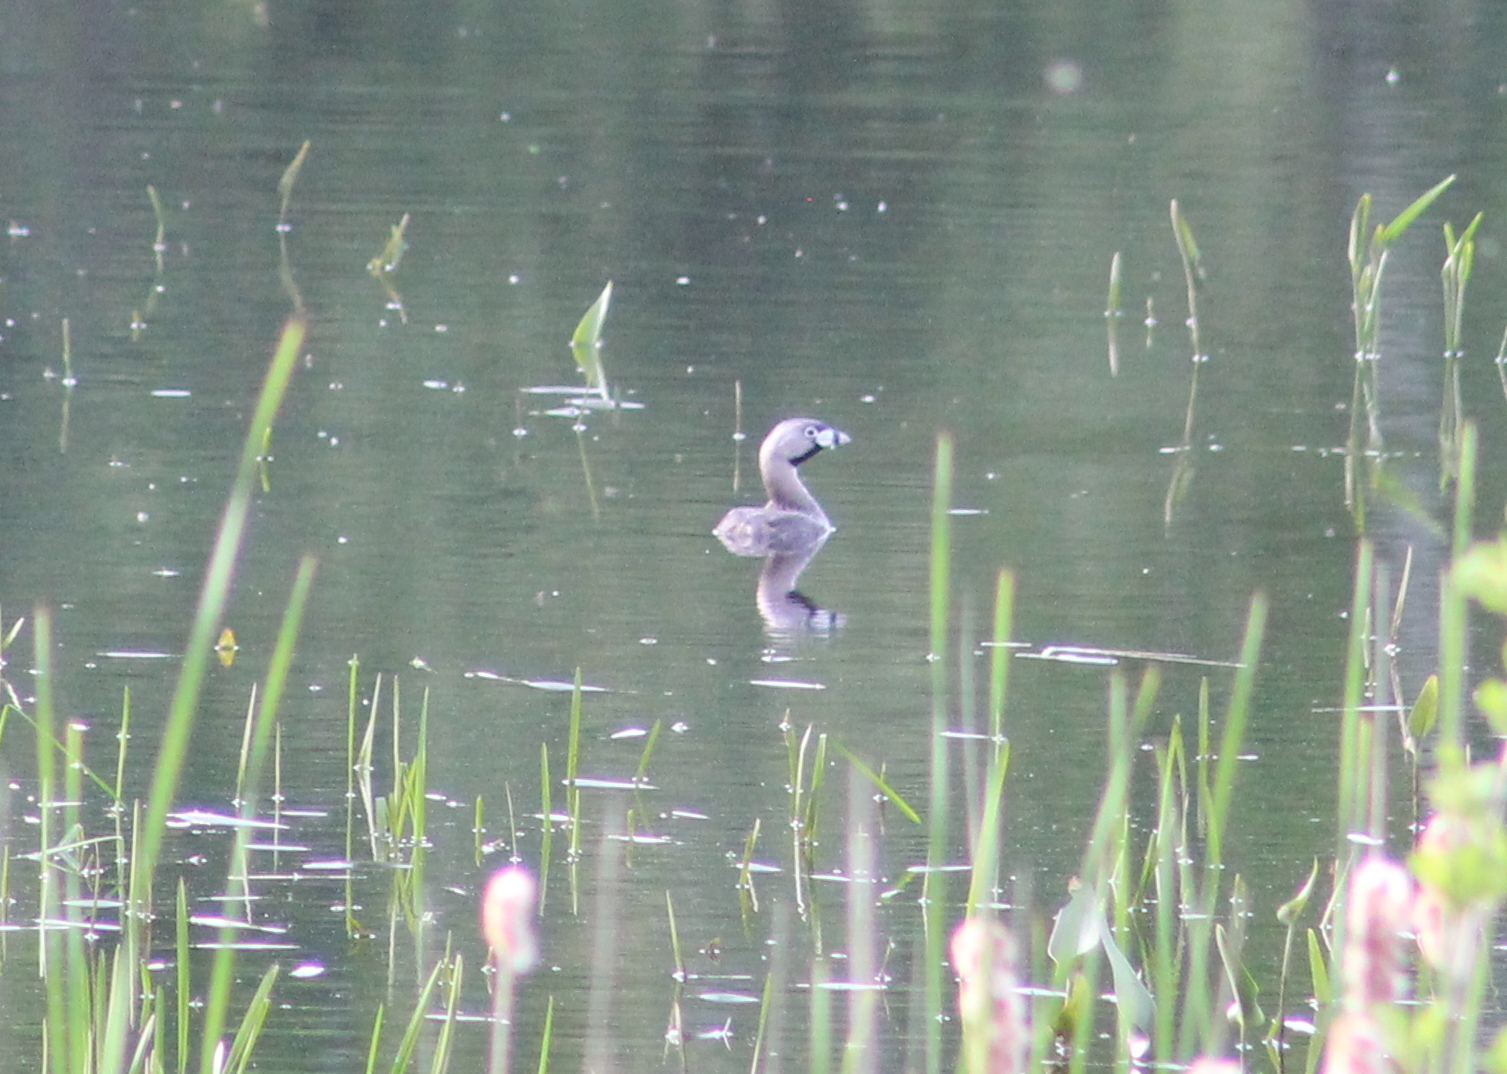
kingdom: Animalia
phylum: Chordata
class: Aves
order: Podicipediformes
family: Podicipedidae
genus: Podilymbus
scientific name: Podilymbus podiceps
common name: Pied-billed grebe
